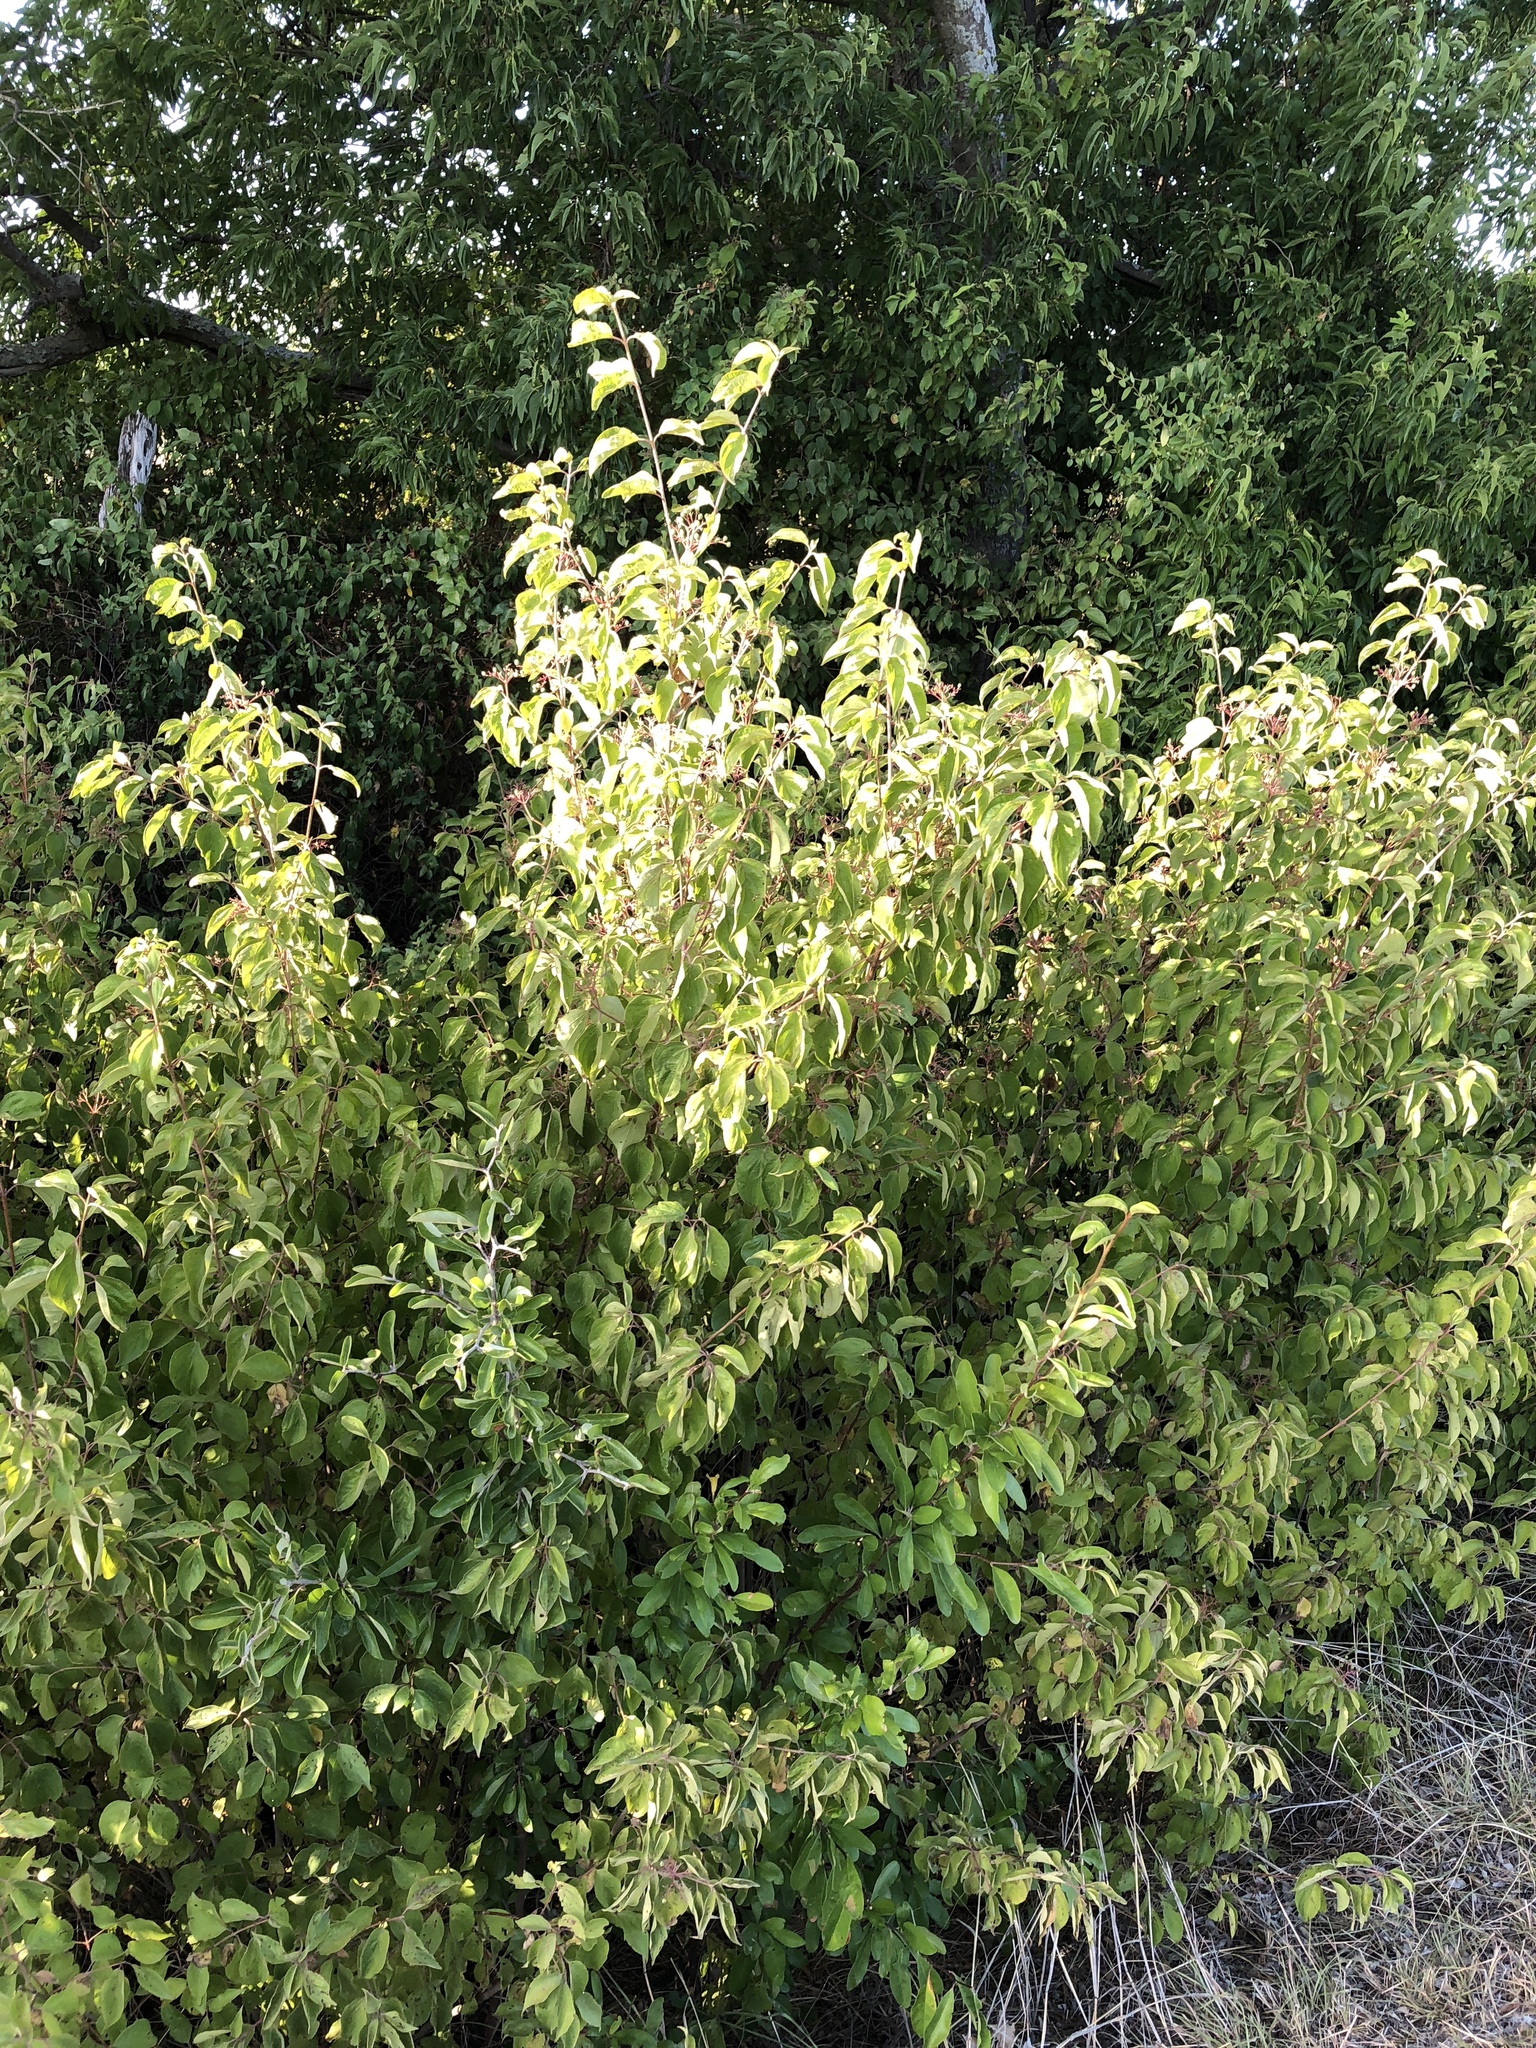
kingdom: Plantae
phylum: Tracheophyta
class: Magnoliopsida
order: Cornales
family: Cornaceae
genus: Cornus
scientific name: Cornus drummondii
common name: Rough-leaf dogwood
